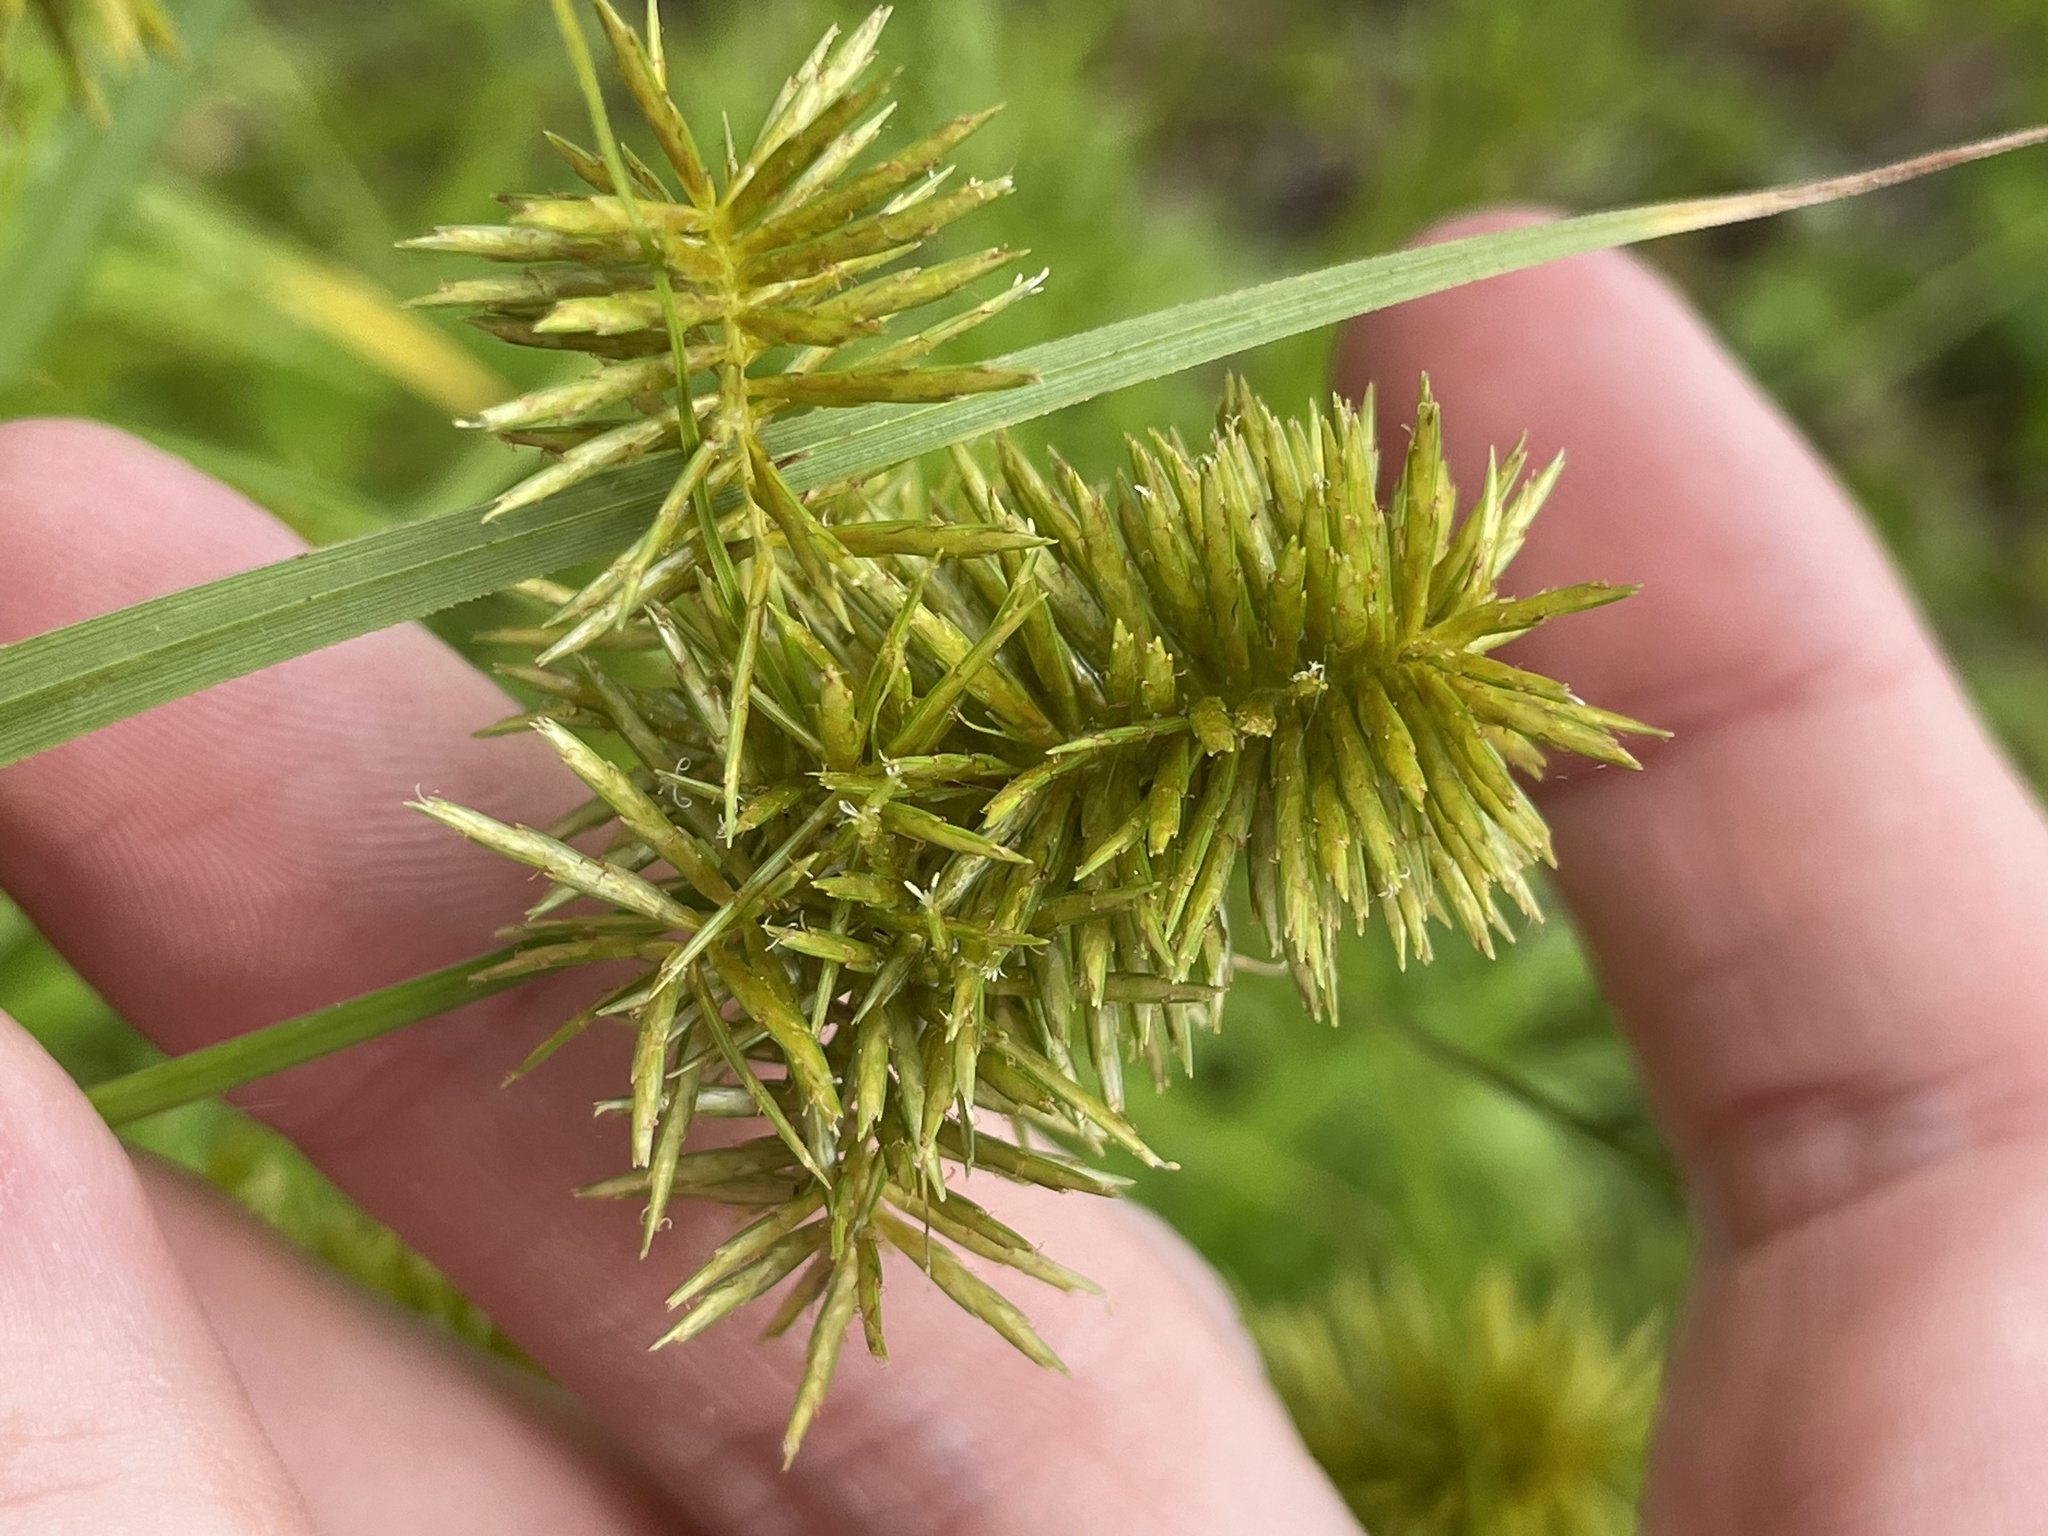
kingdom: Plantae
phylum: Tracheophyta
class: Liliopsida
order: Poales
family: Cyperaceae
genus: Cyperus
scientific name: Cyperus strigosus
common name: False nutsedge
